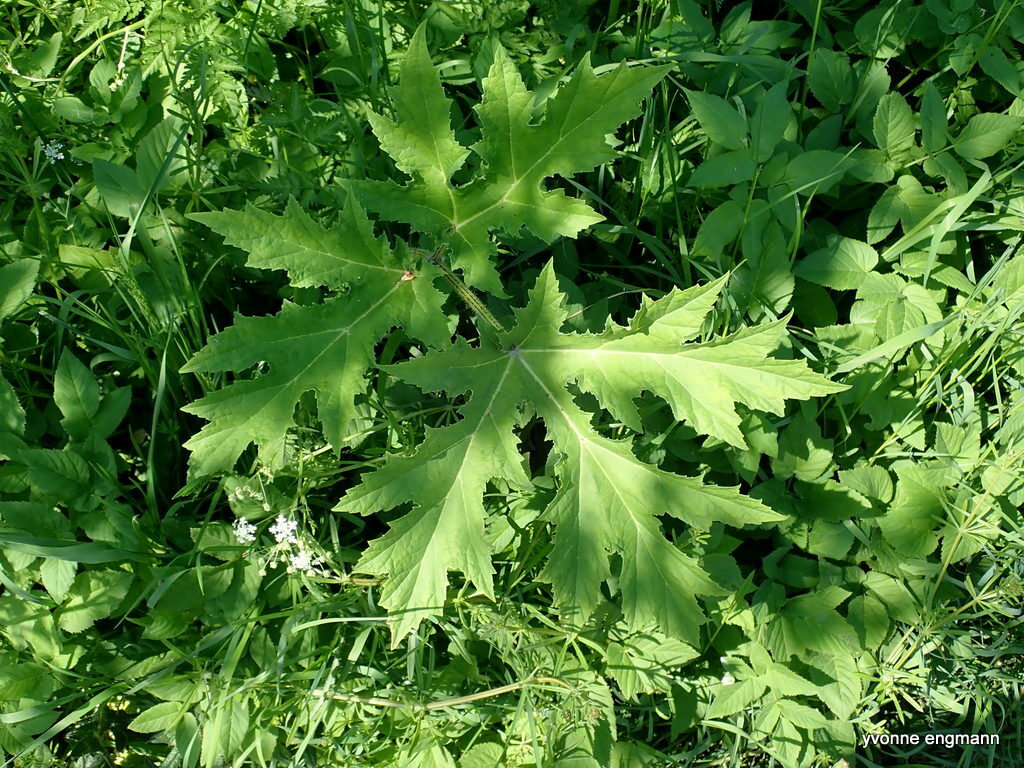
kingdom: Plantae
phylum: Tracheophyta
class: Magnoliopsida
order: Apiales
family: Apiaceae
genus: Heracleum
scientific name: Heracleum mantegazzianum
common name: Giant hogweed
